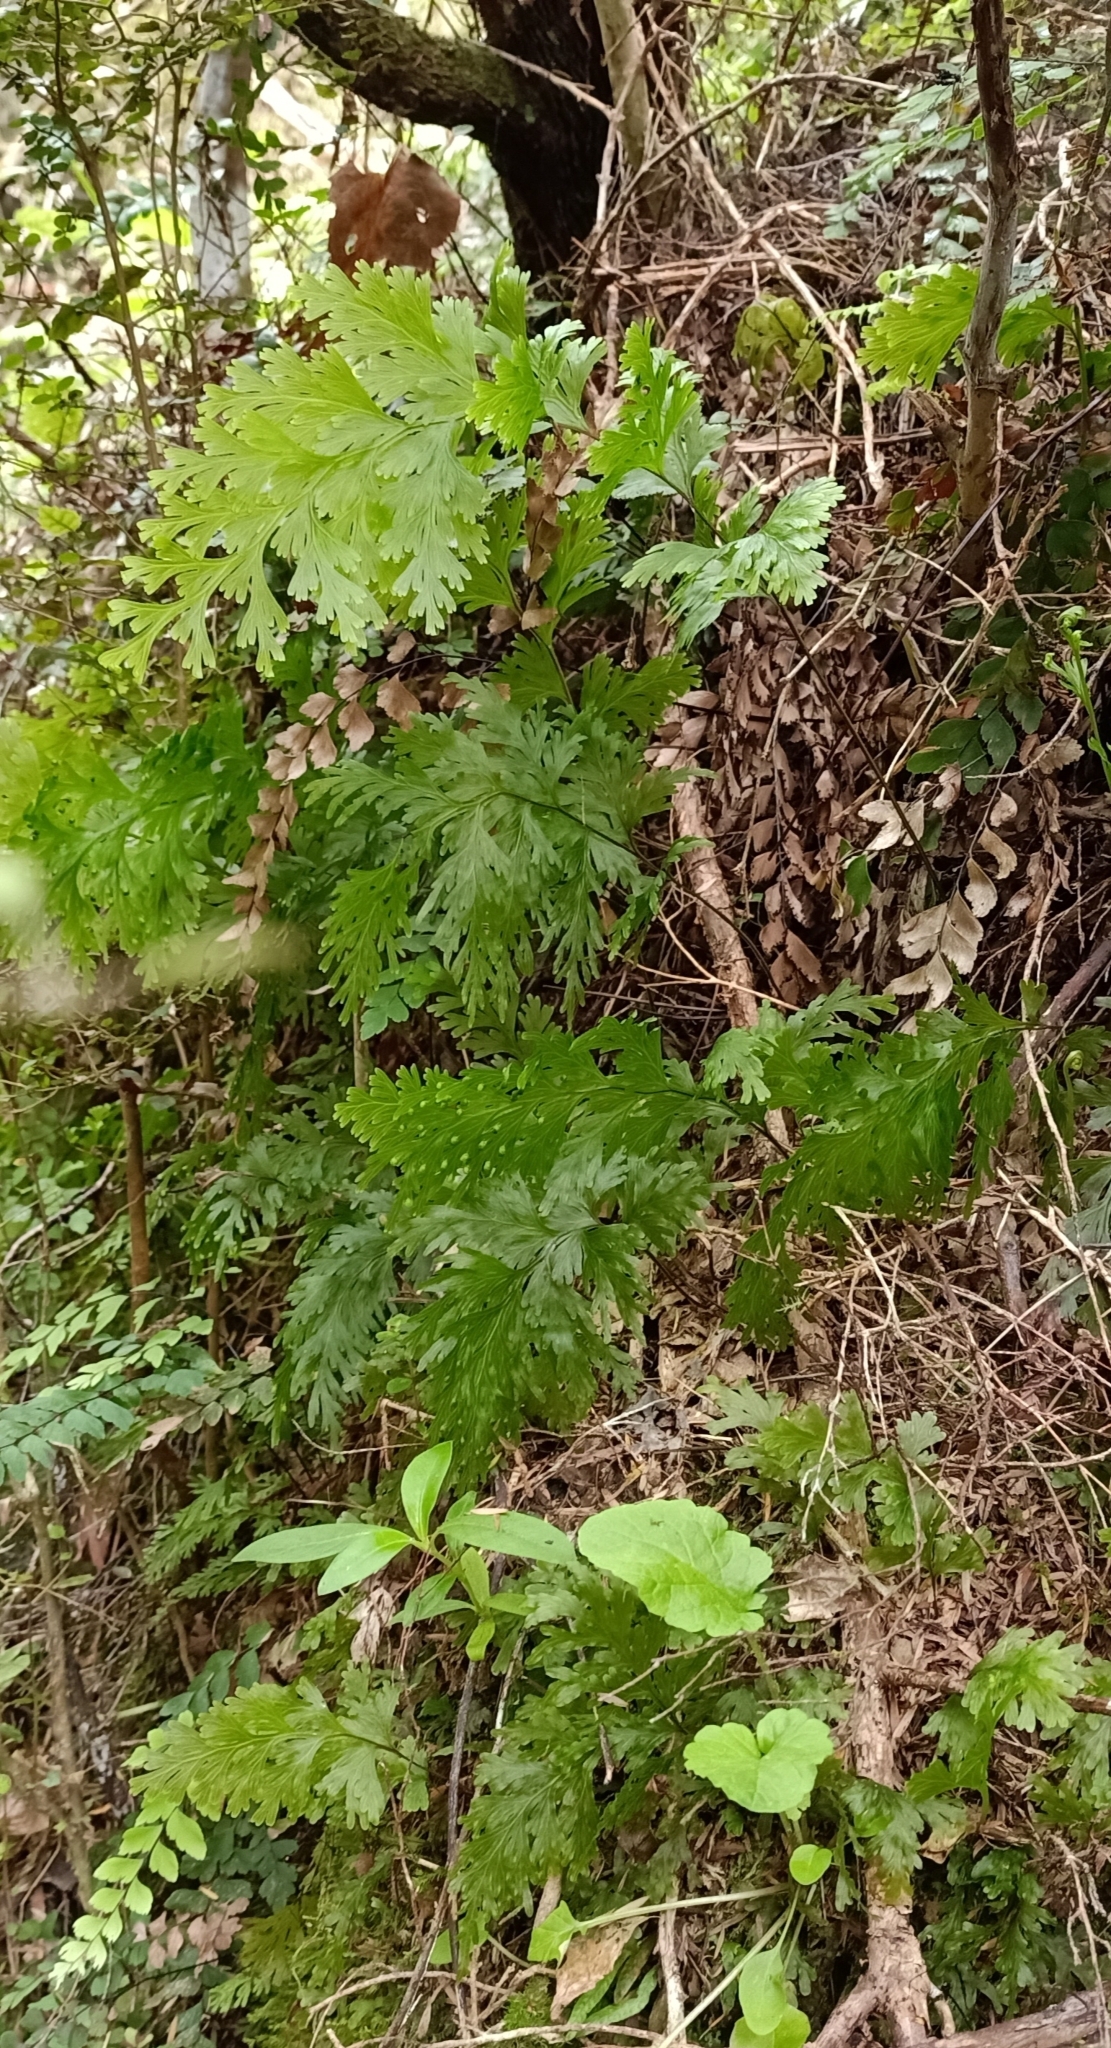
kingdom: Plantae
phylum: Tracheophyta
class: Polypodiopsida
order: Hymenophyllales
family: Hymenophyllaceae
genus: Hymenophyllum
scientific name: Hymenophyllum dilatatum
